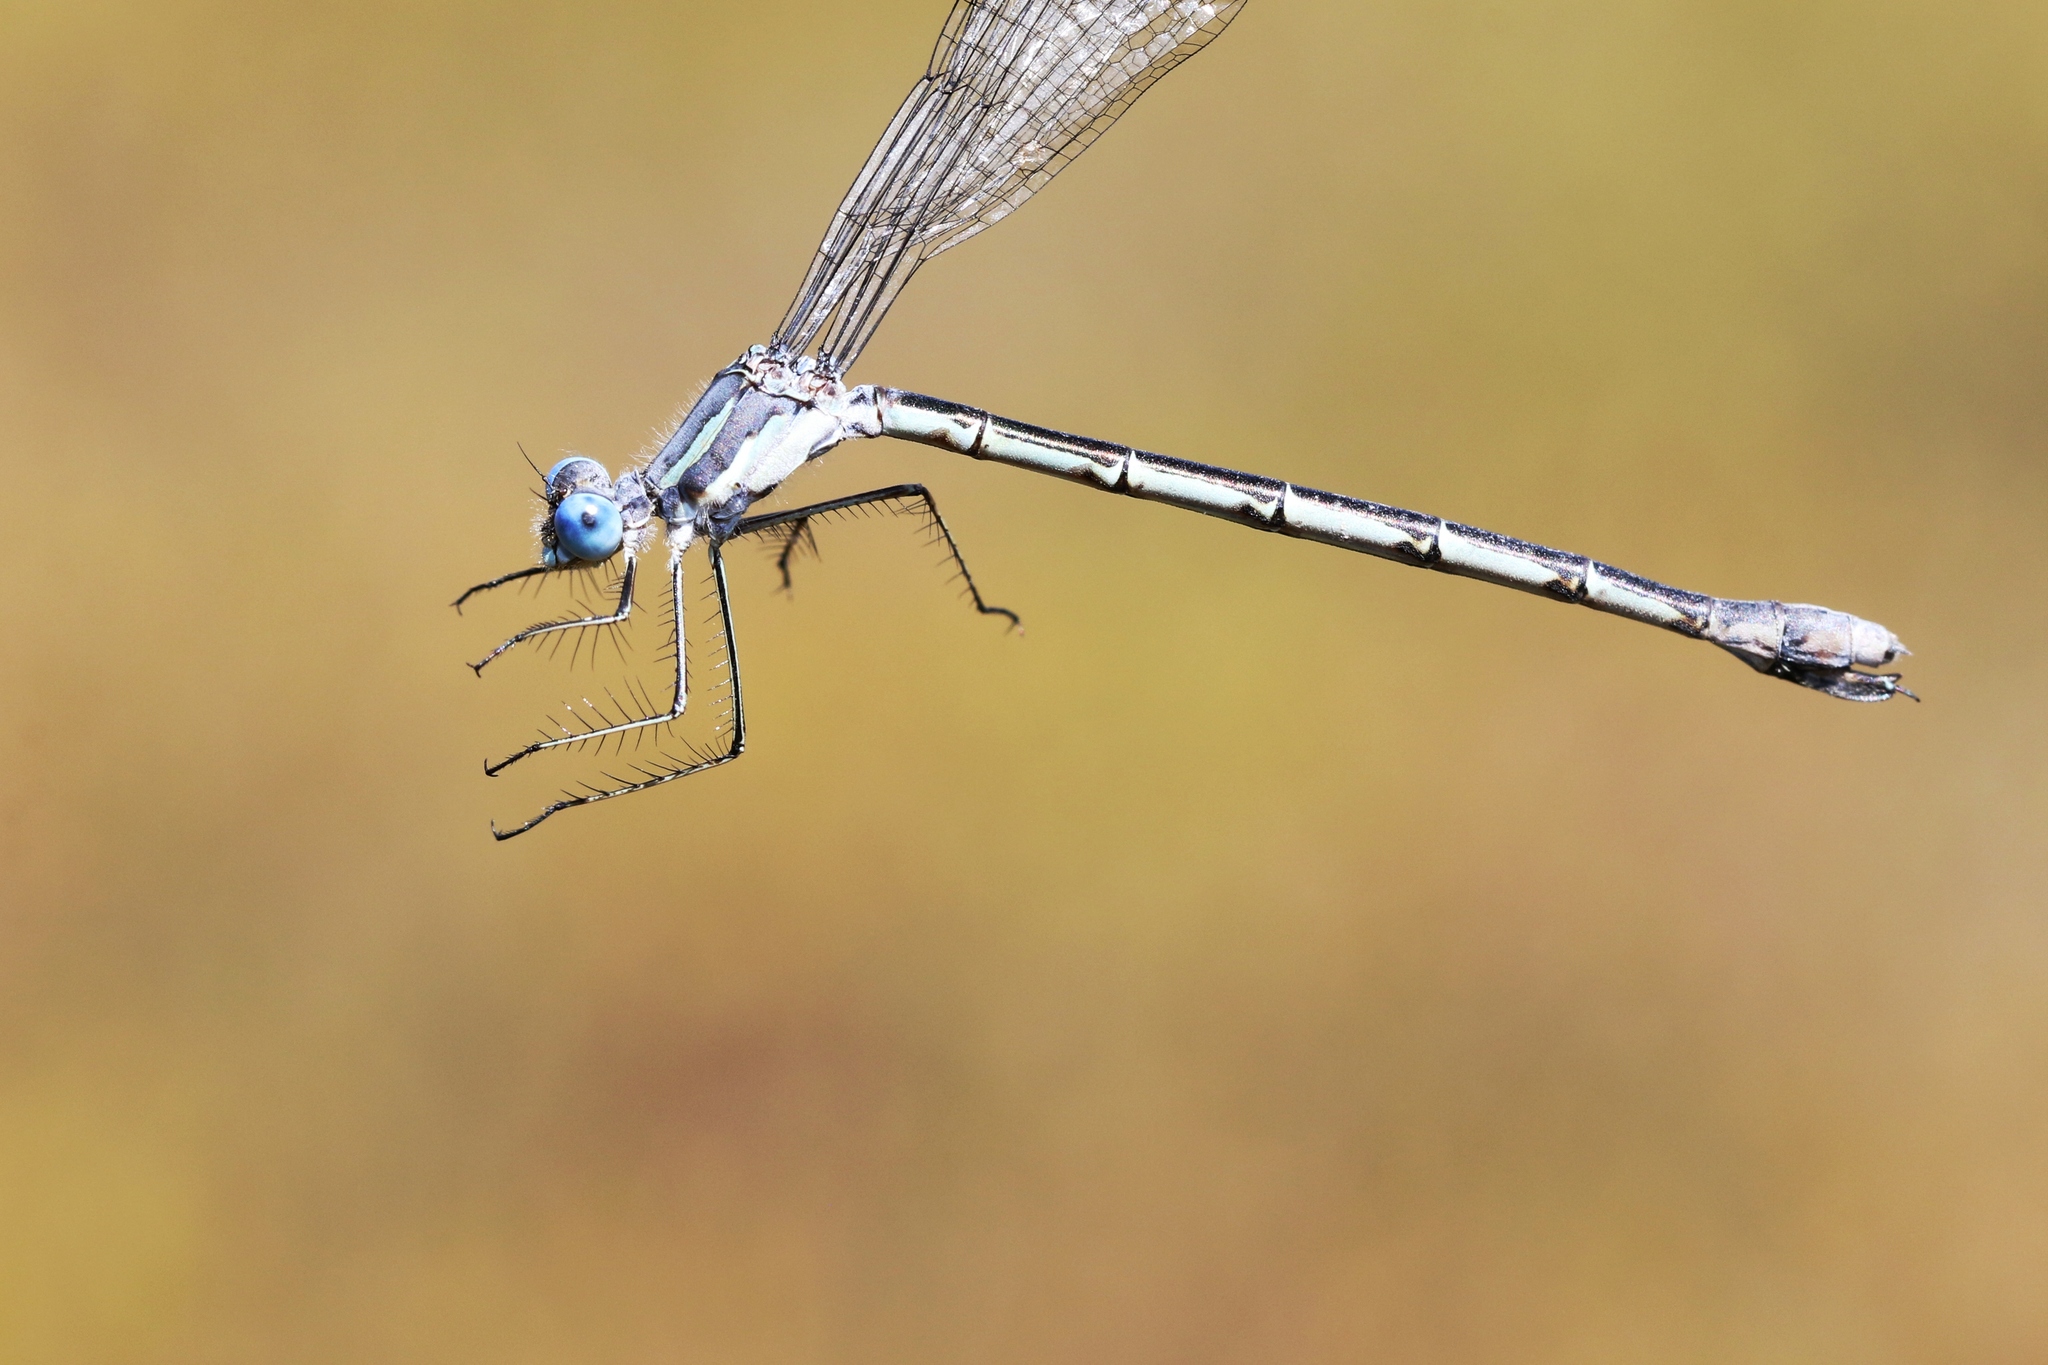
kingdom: Animalia
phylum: Arthropoda
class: Insecta
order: Odonata
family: Lestidae
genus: Lestes
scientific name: Lestes forcipatus
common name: Sweetflag spreadwing
